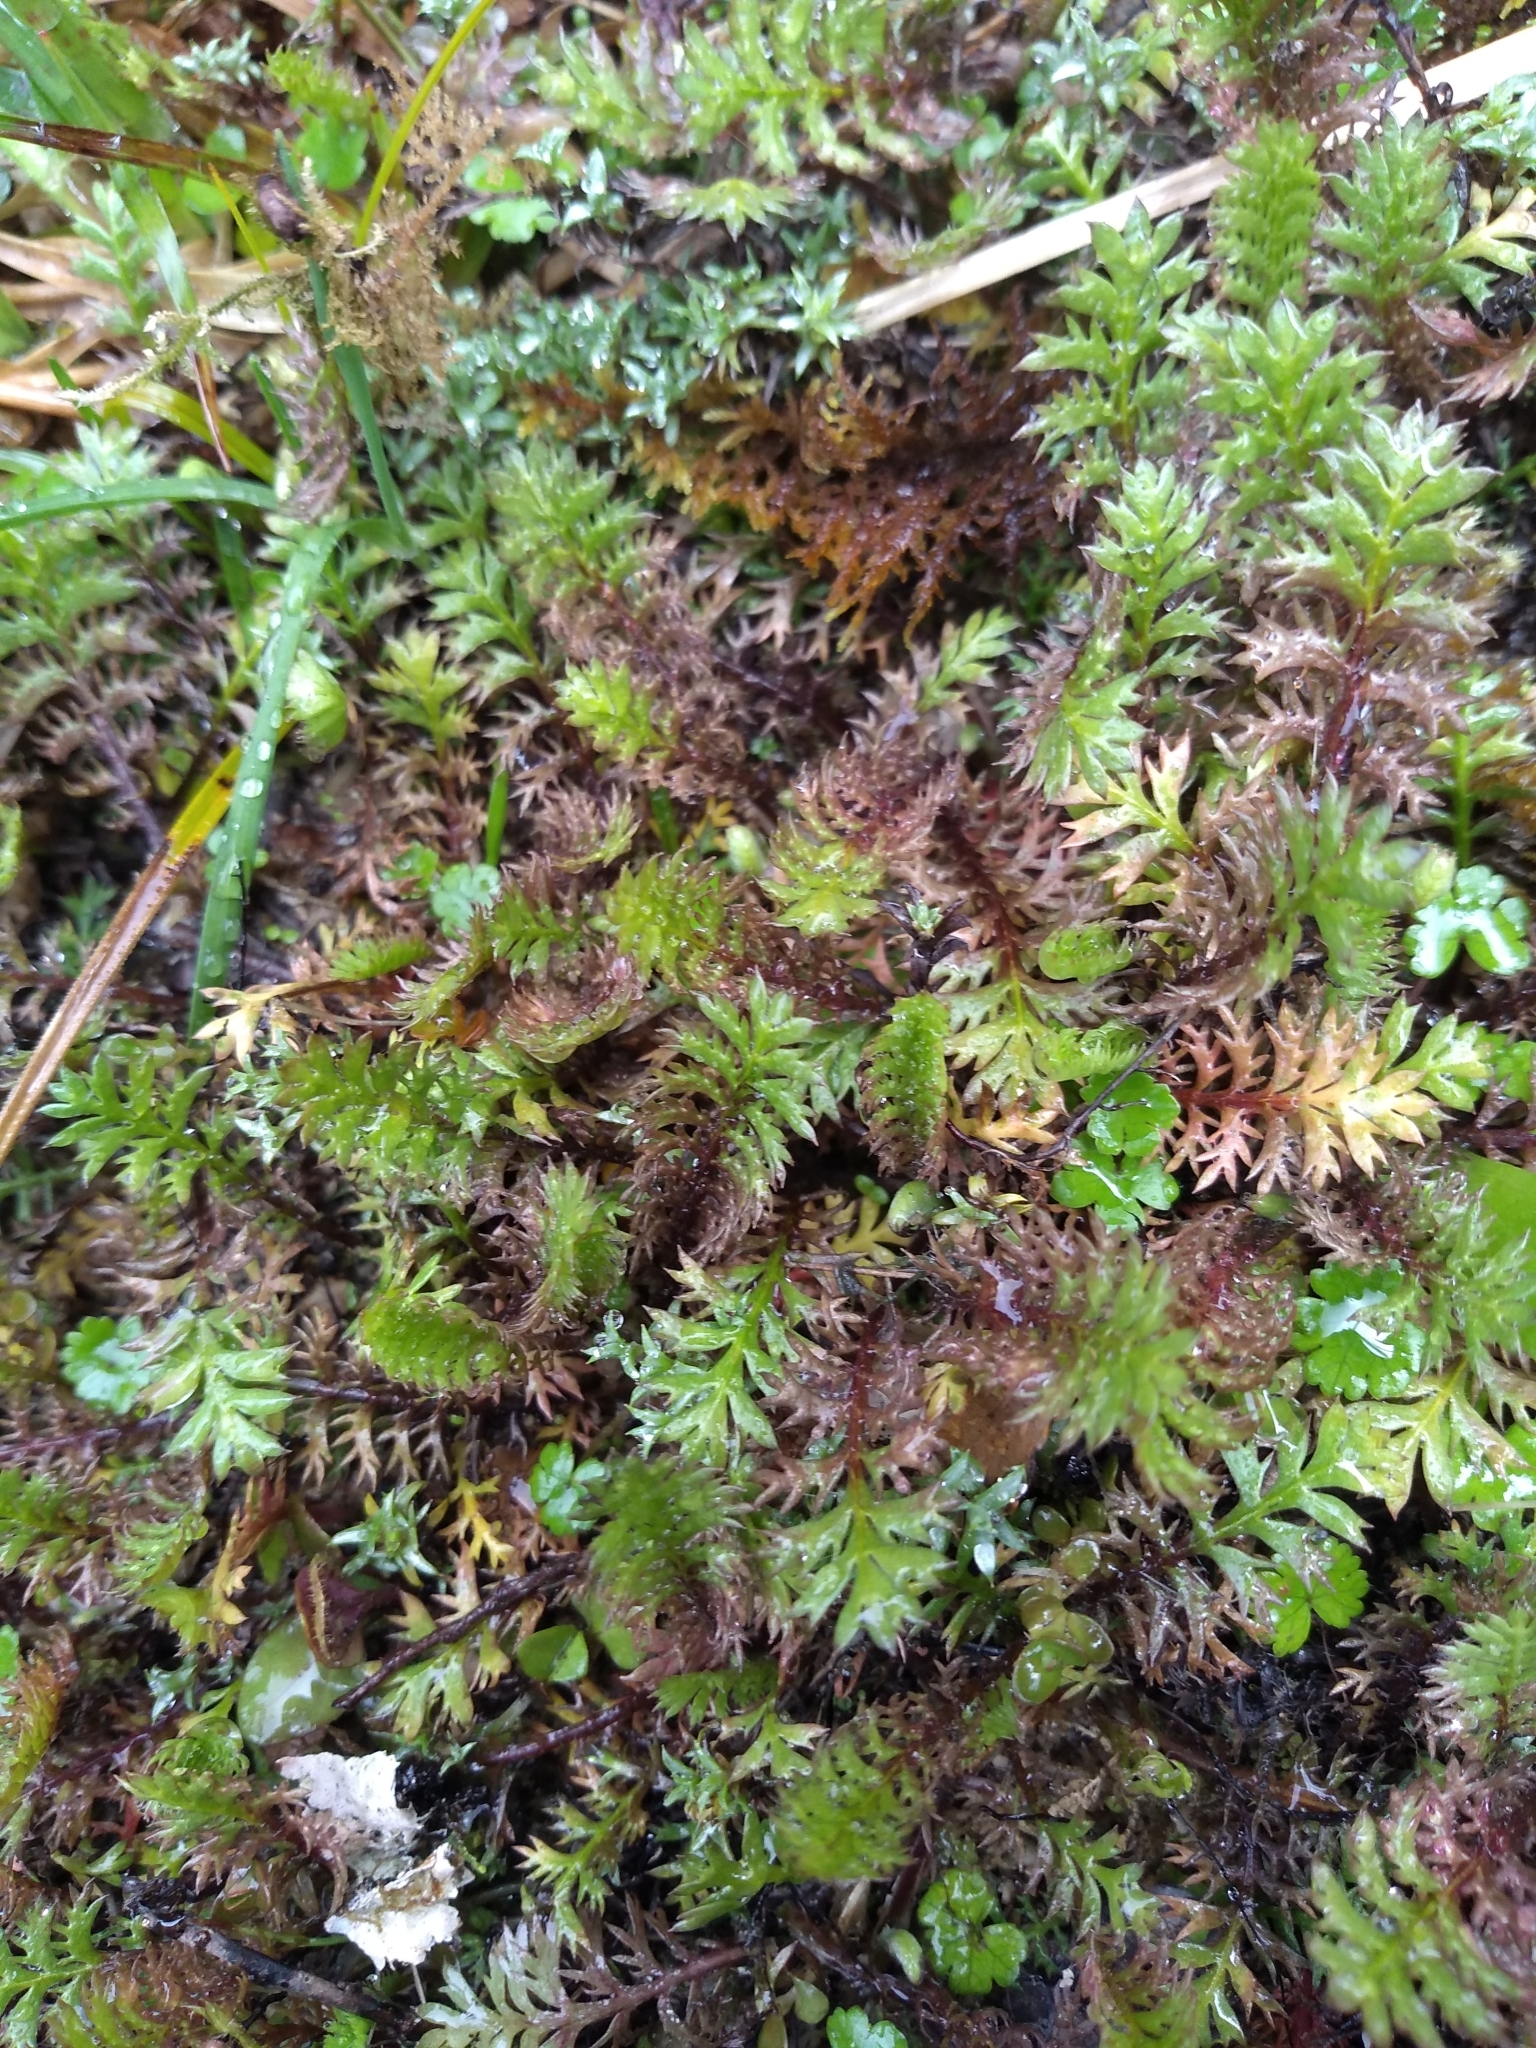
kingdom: Plantae
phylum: Tracheophyta
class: Magnoliopsida
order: Asterales
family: Asteraceae
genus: Leptinella
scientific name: Leptinella squalida
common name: New zealand brass-buttons
